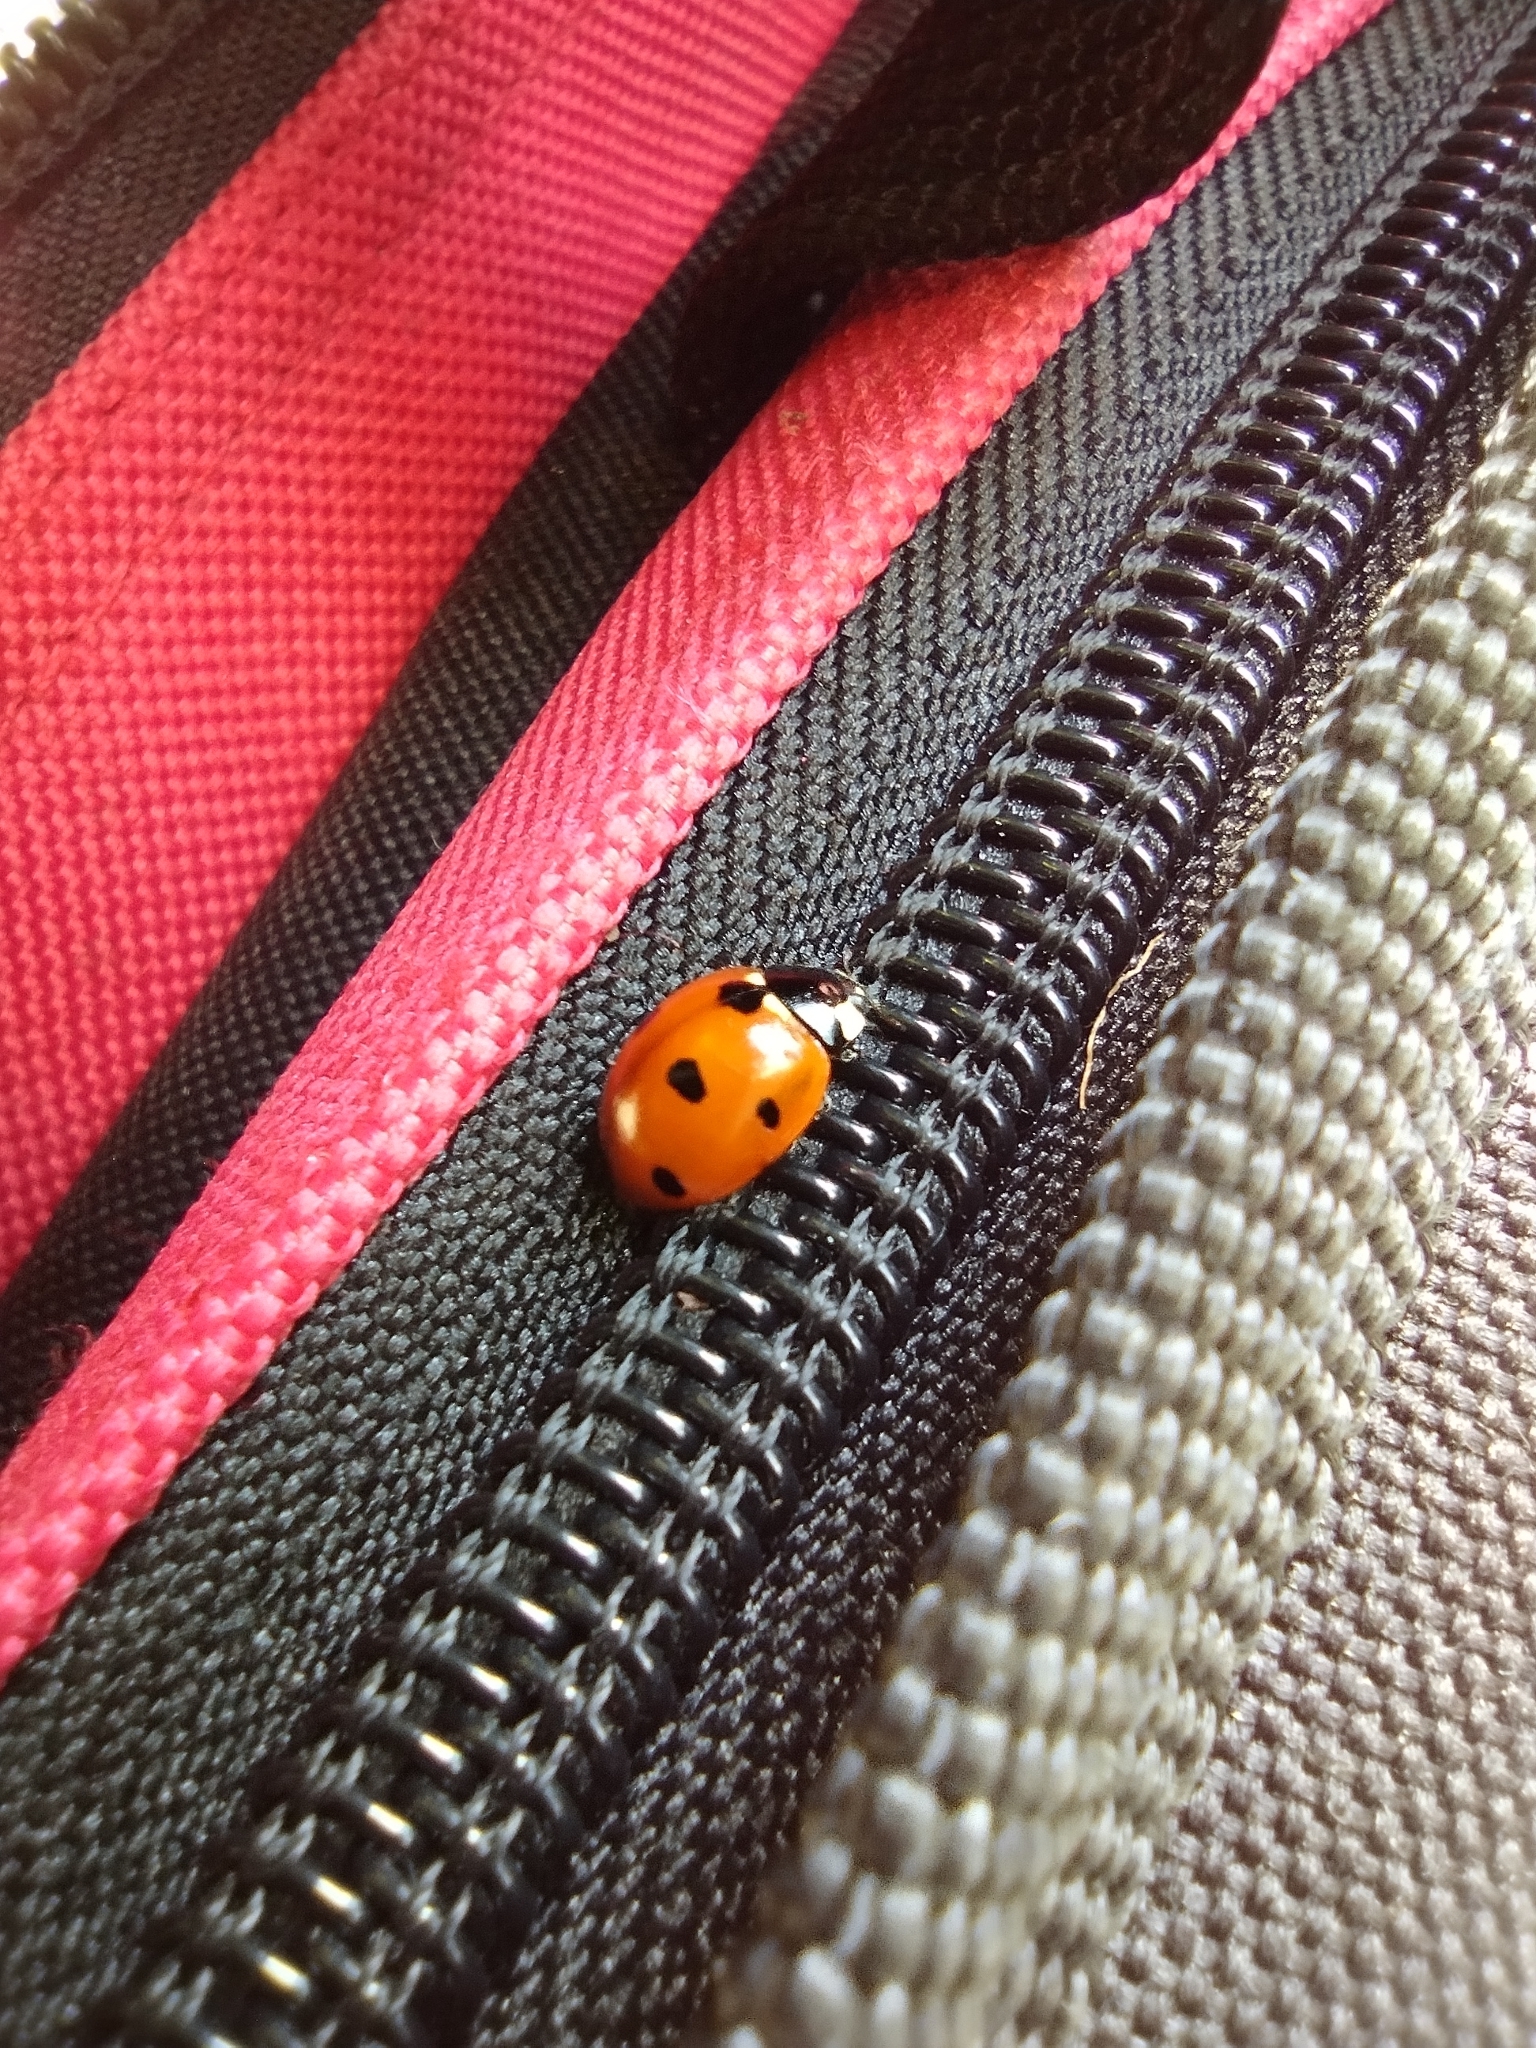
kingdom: Animalia
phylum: Arthropoda
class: Insecta
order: Coleoptera
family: Coccinellidae
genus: Coccinella
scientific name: Coccinella septempunctata
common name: Sevenspotted lady beetle
